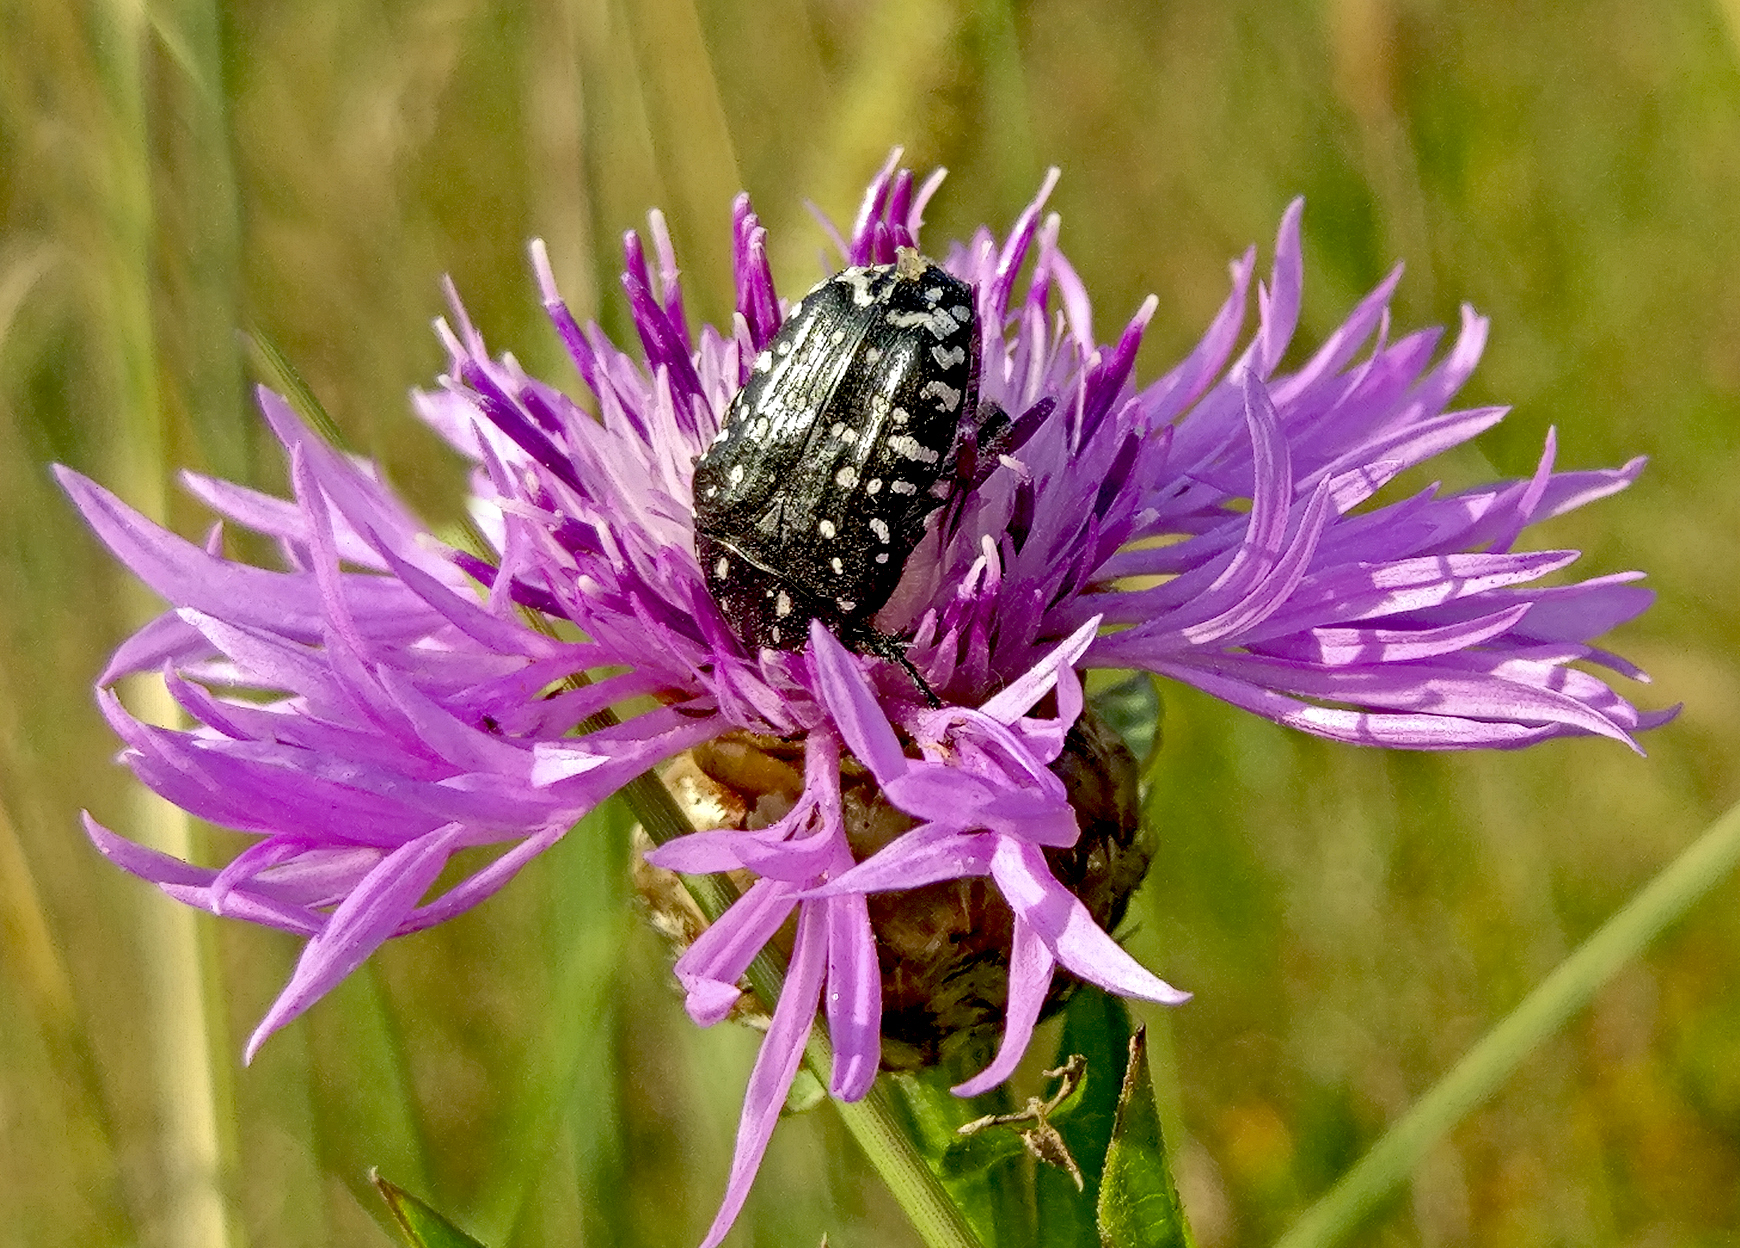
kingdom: Animalia
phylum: Arthropoda
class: Insecta
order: Coleoptera
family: Scarabaeidae
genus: Oxythyrea
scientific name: Oxythyrea funesta
